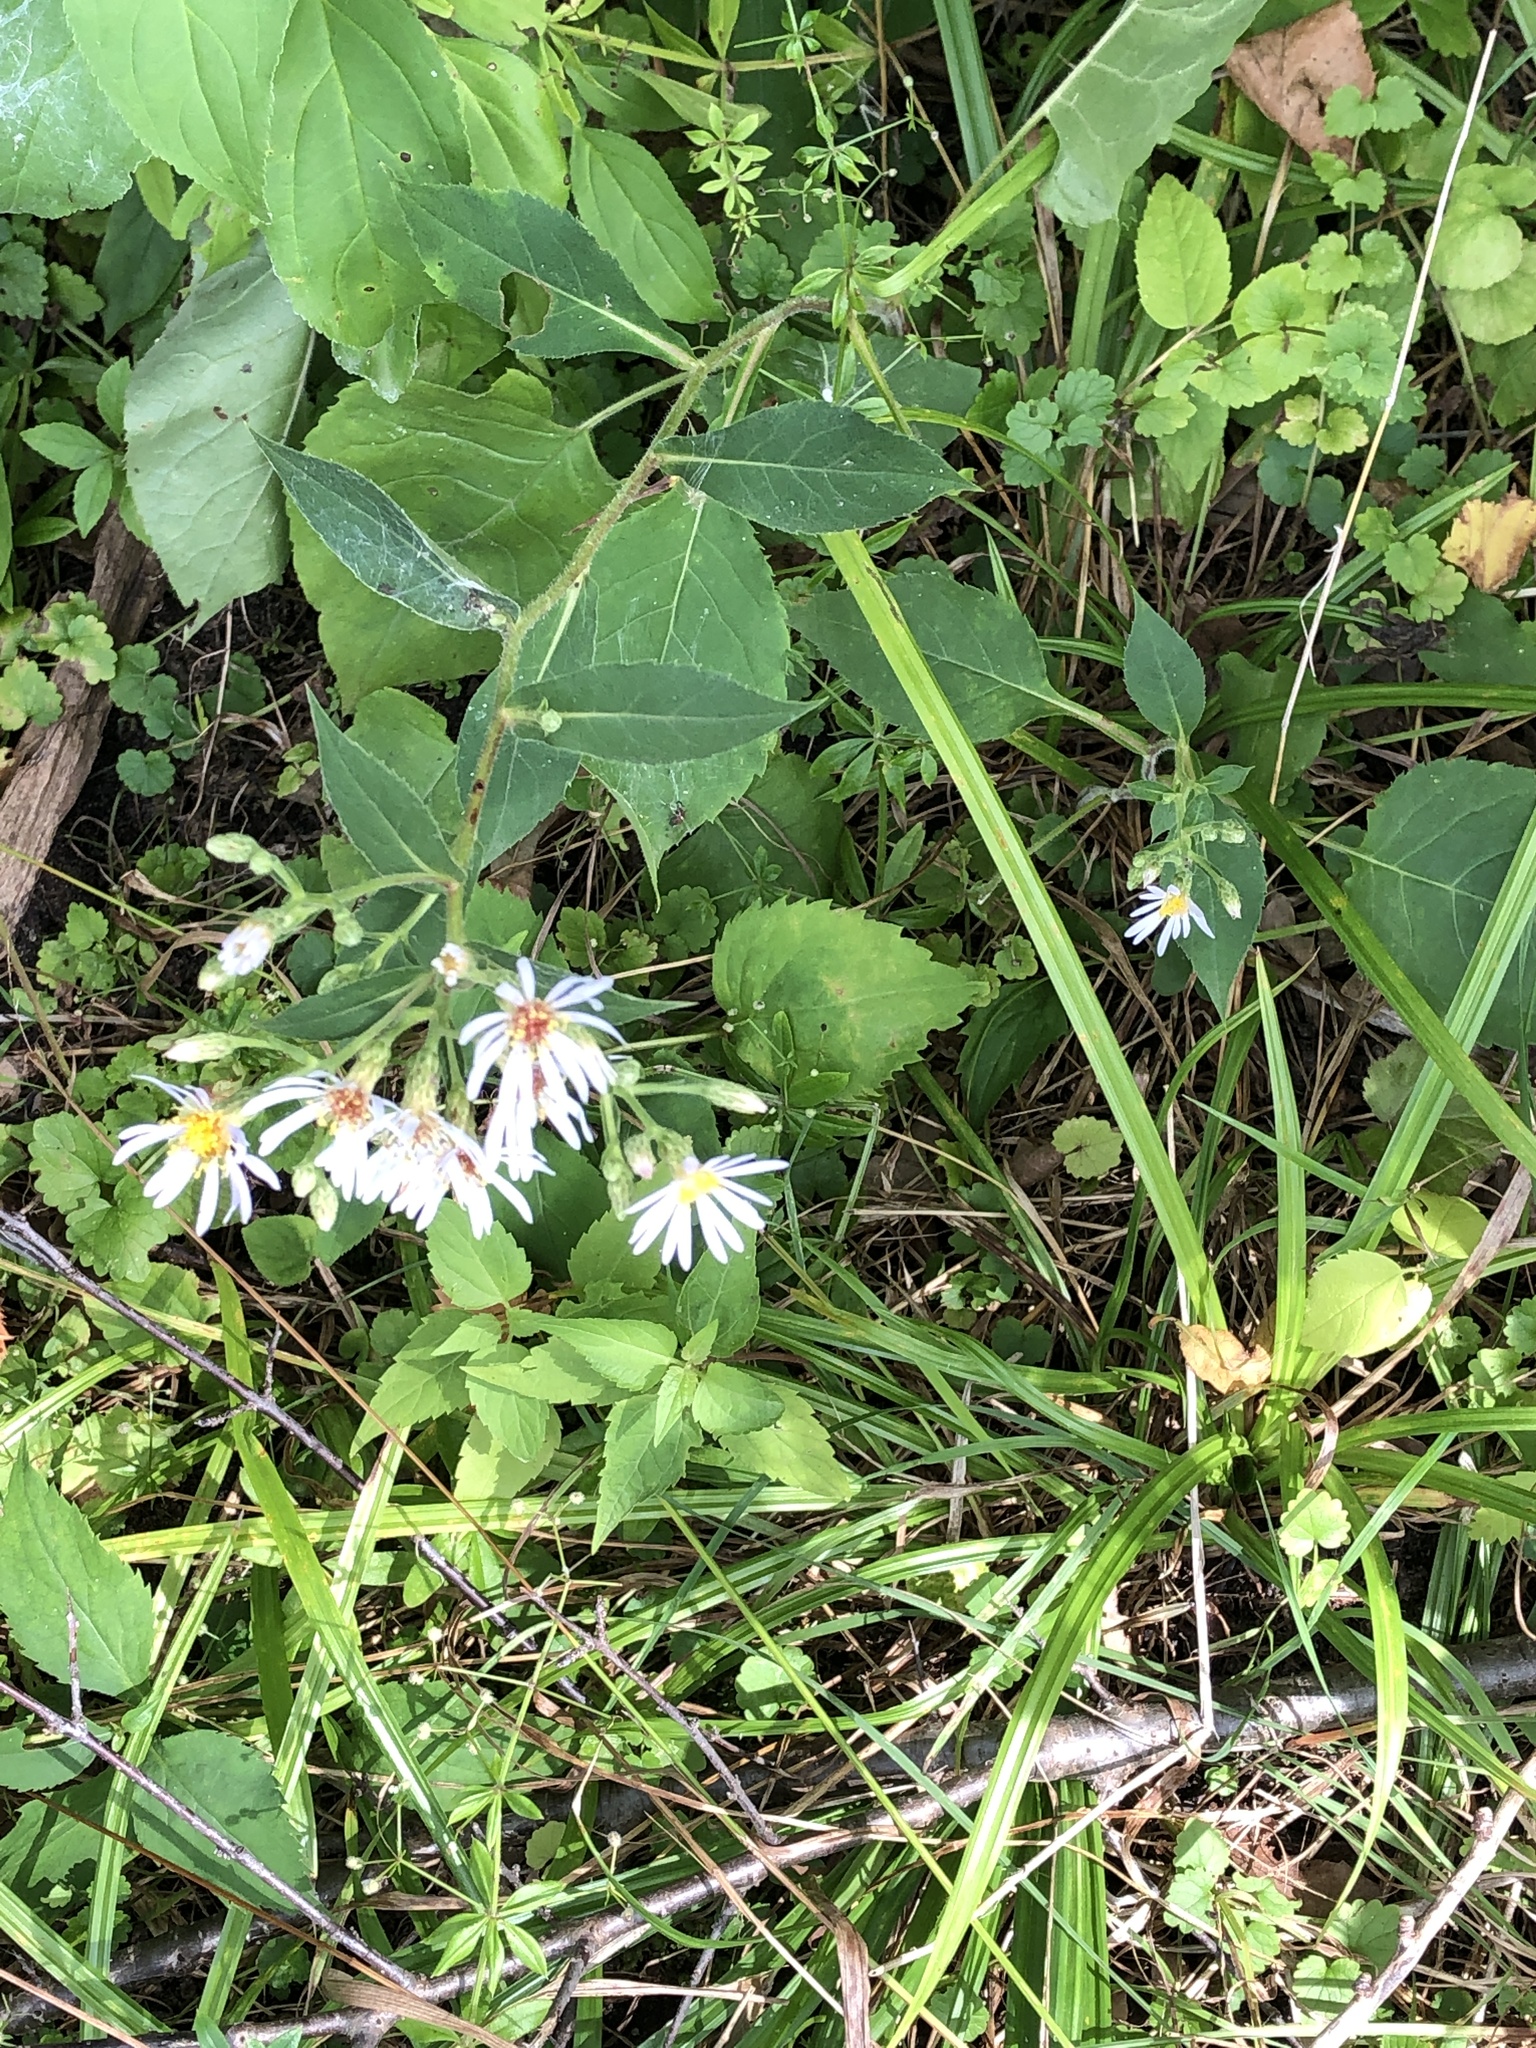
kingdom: Plantae
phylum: Tracheophyta
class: Magnoliopsida
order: Asterales
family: Asteraceae
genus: Eurybia
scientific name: Eurybia macrophylla
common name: Big-leaved aster
